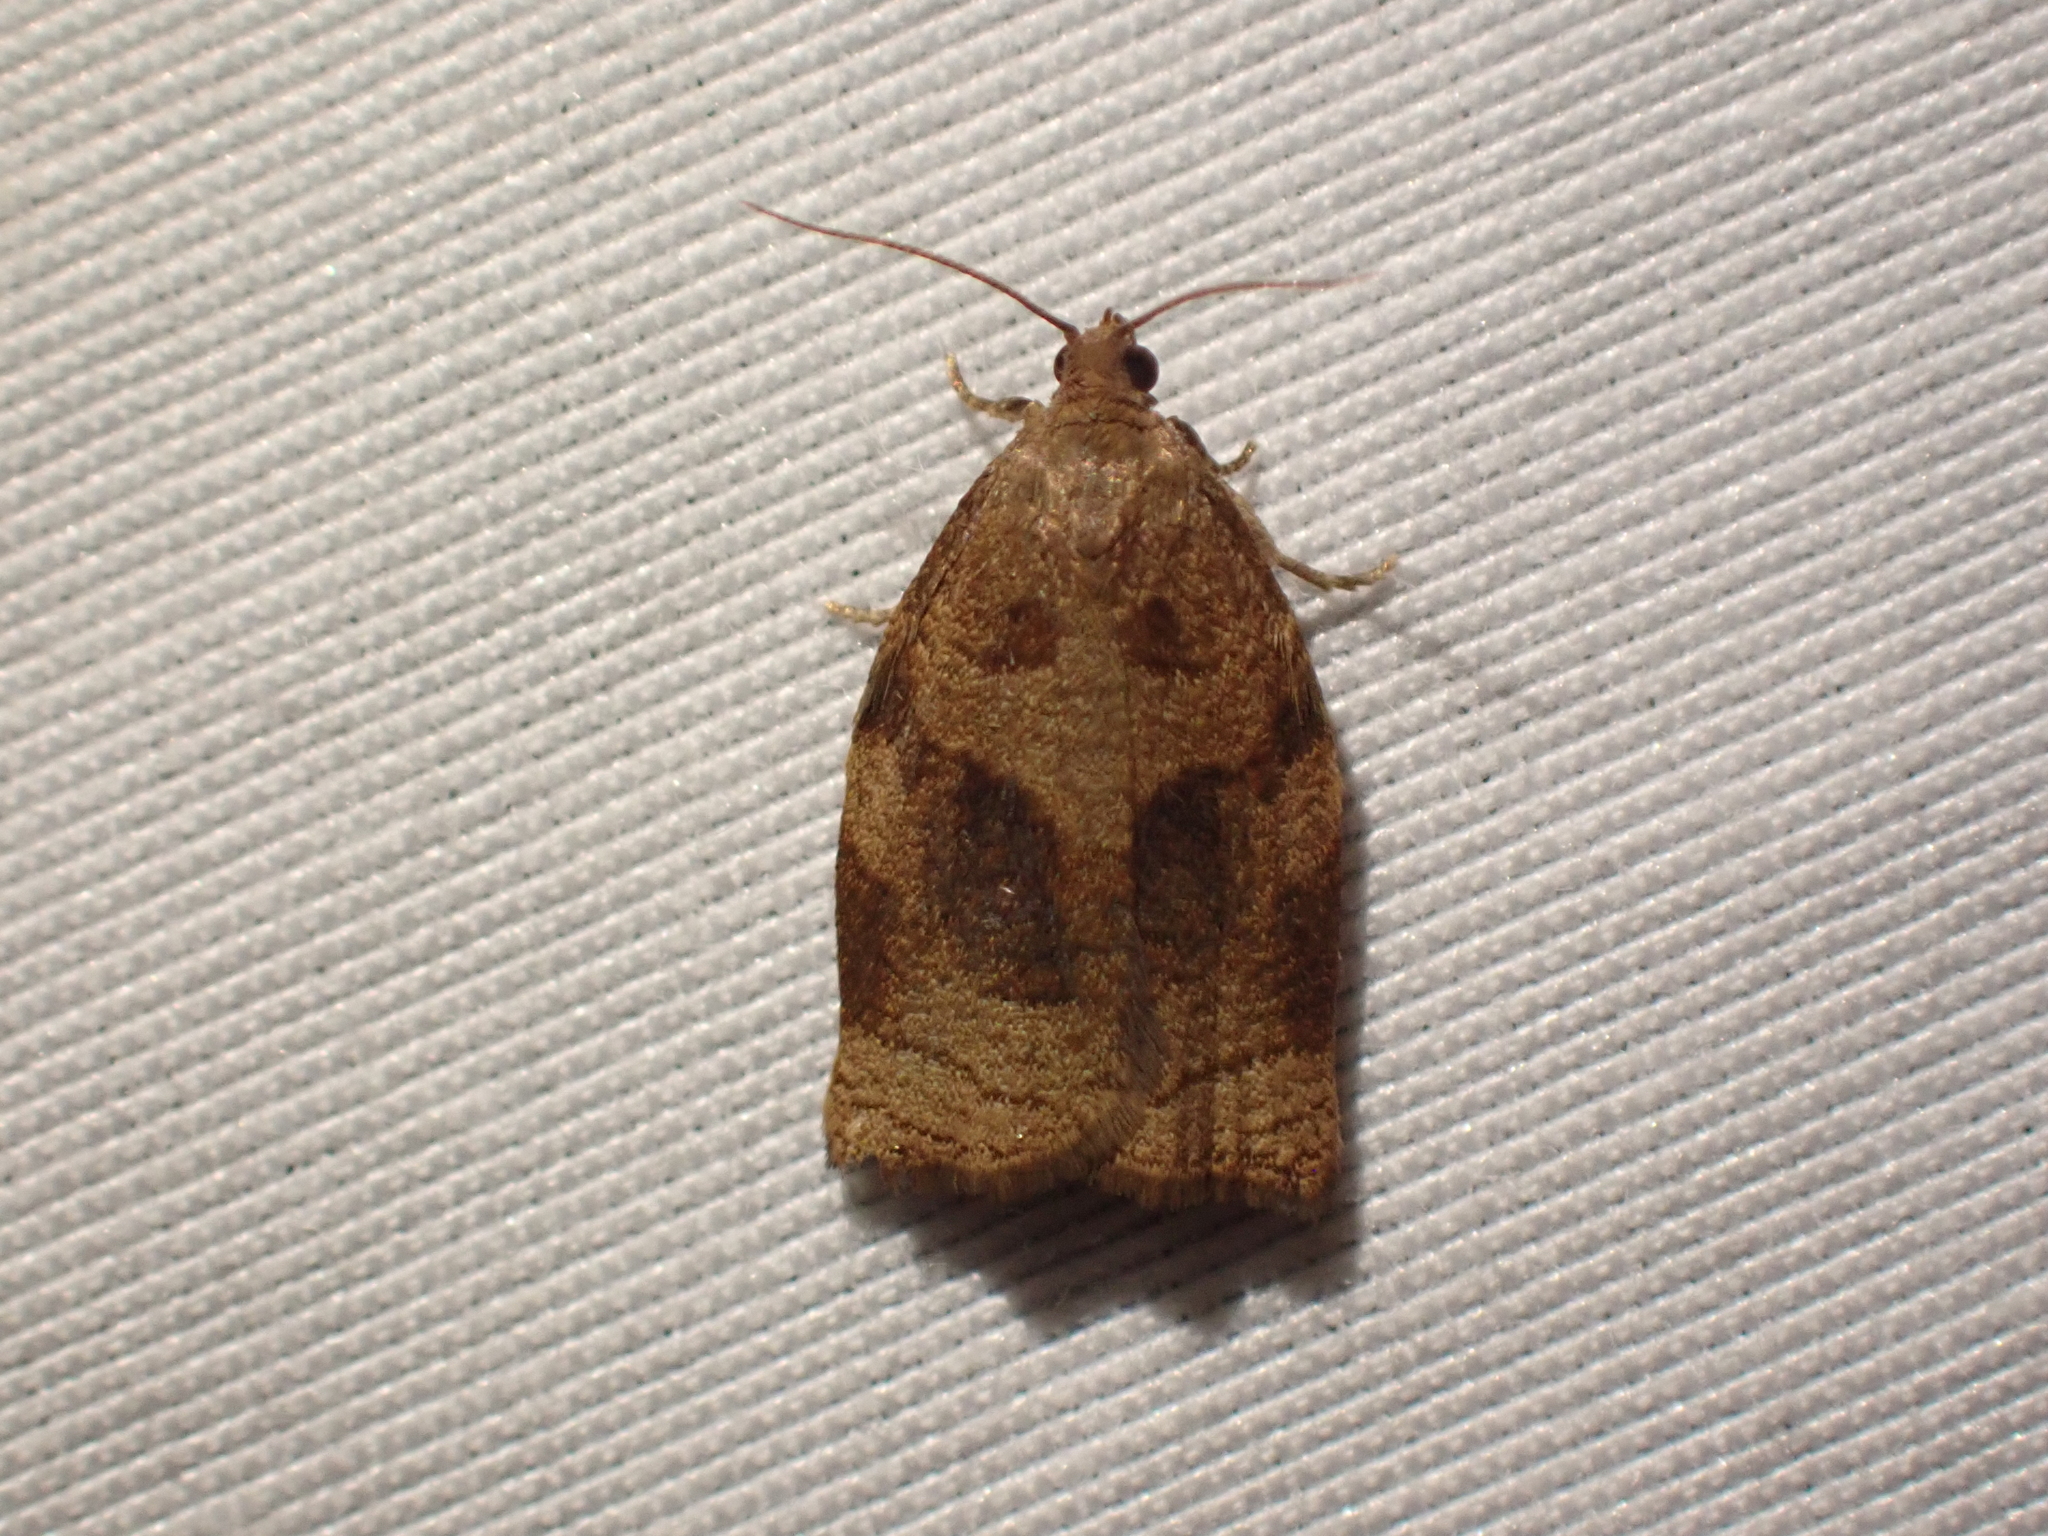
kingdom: Animalia
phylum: Arthropoda
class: Insecta
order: Lepidoptera
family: Tortricidae
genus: Archips
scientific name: Archips rosana
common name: Rose tortrix
